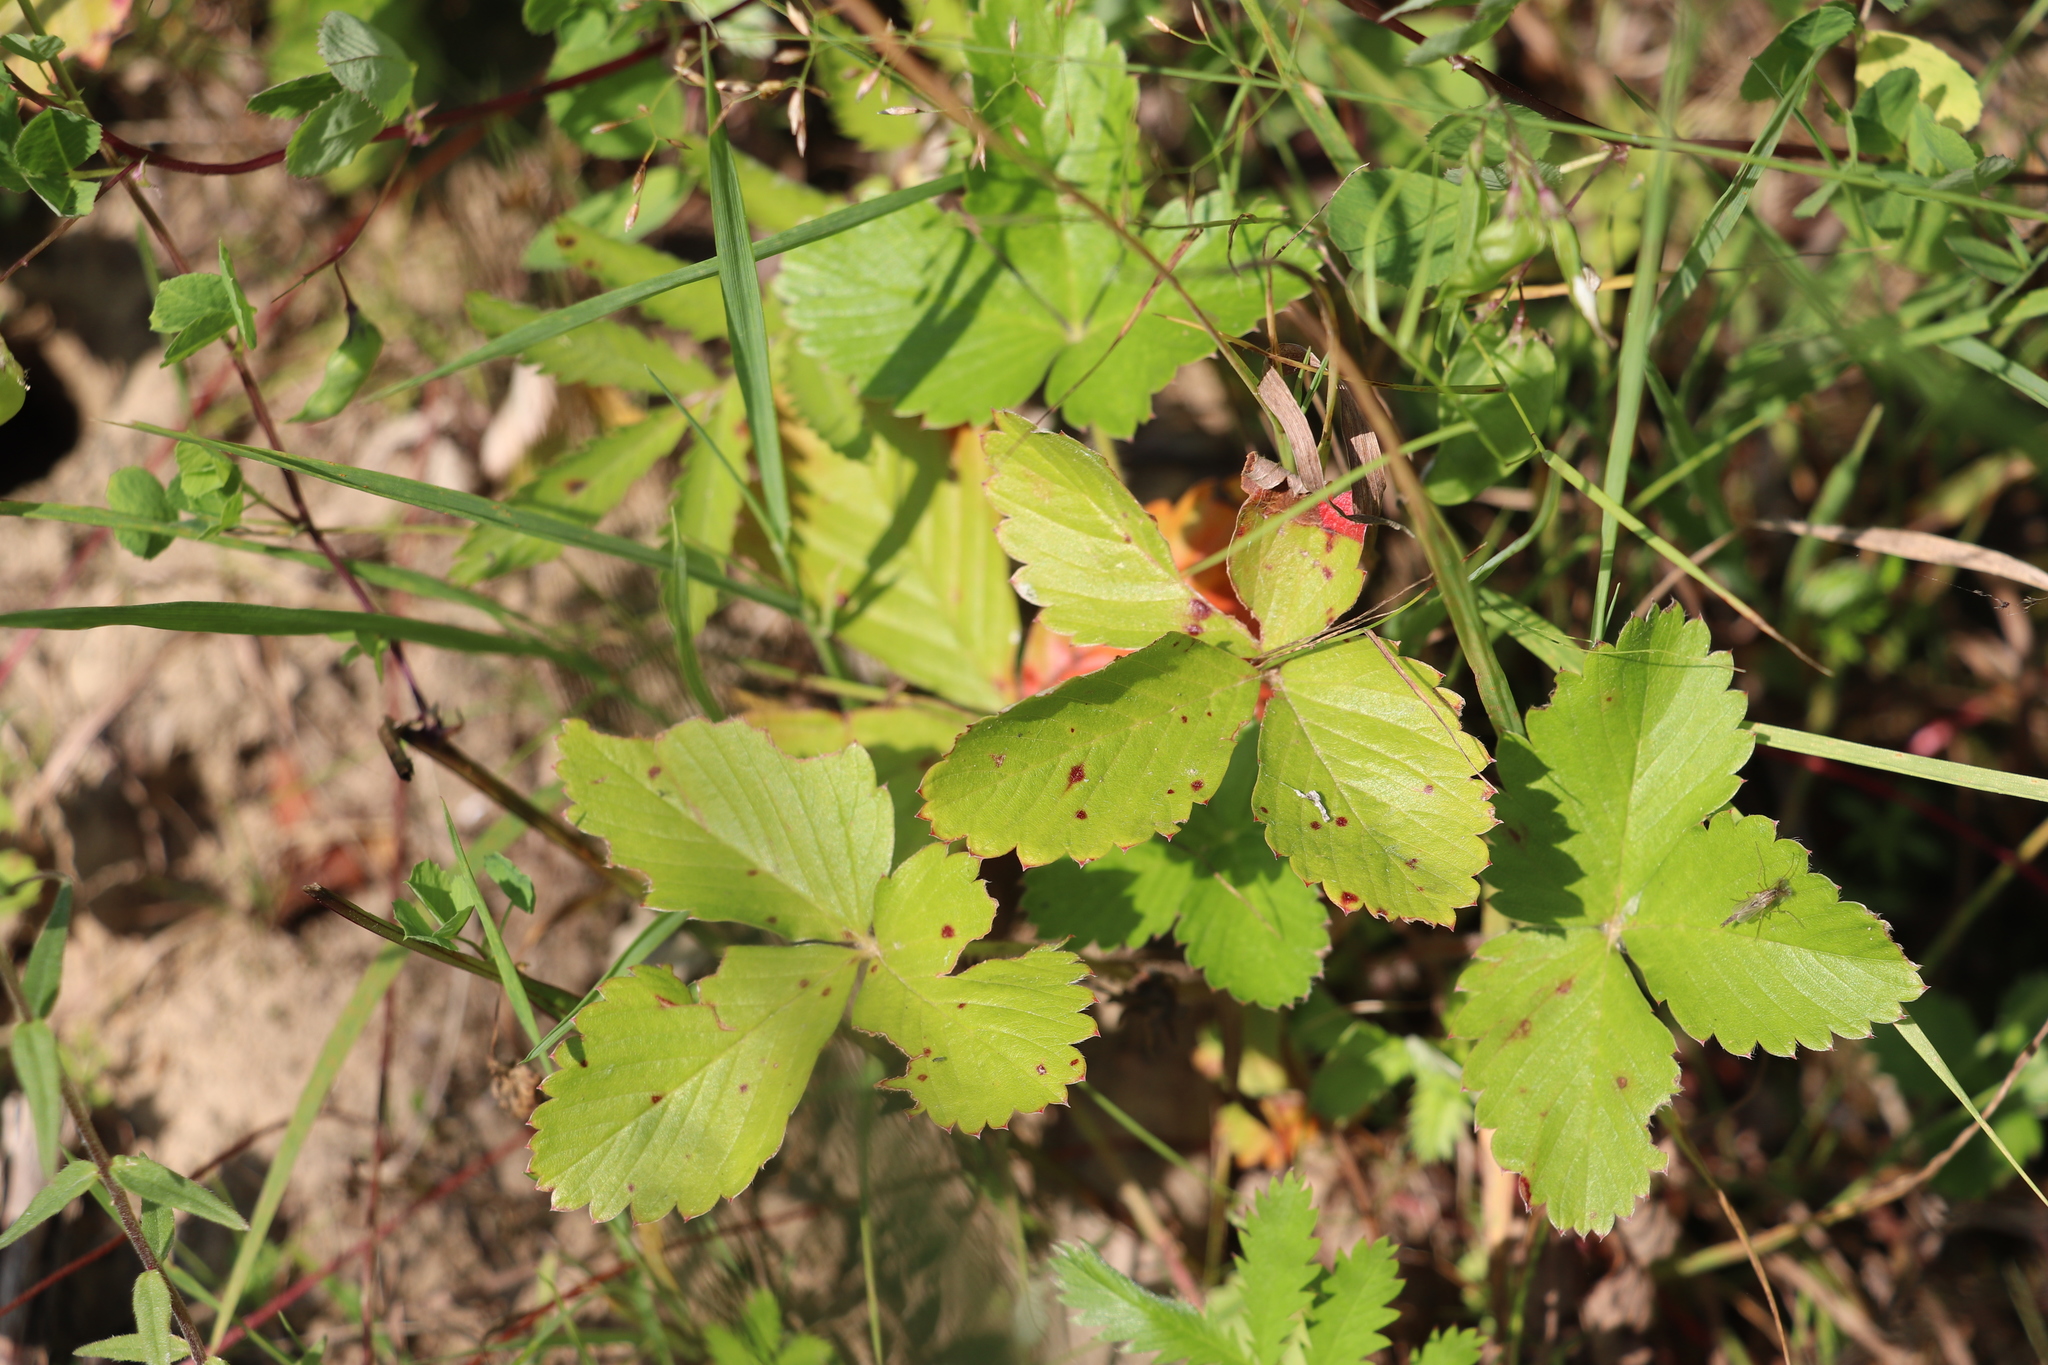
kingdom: Plantae
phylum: Tracheophyta
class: Magnoliopsida
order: Rosales
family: Rosaceae
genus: Fragaria
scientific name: Fragaria vesca
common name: Wild strawberry
